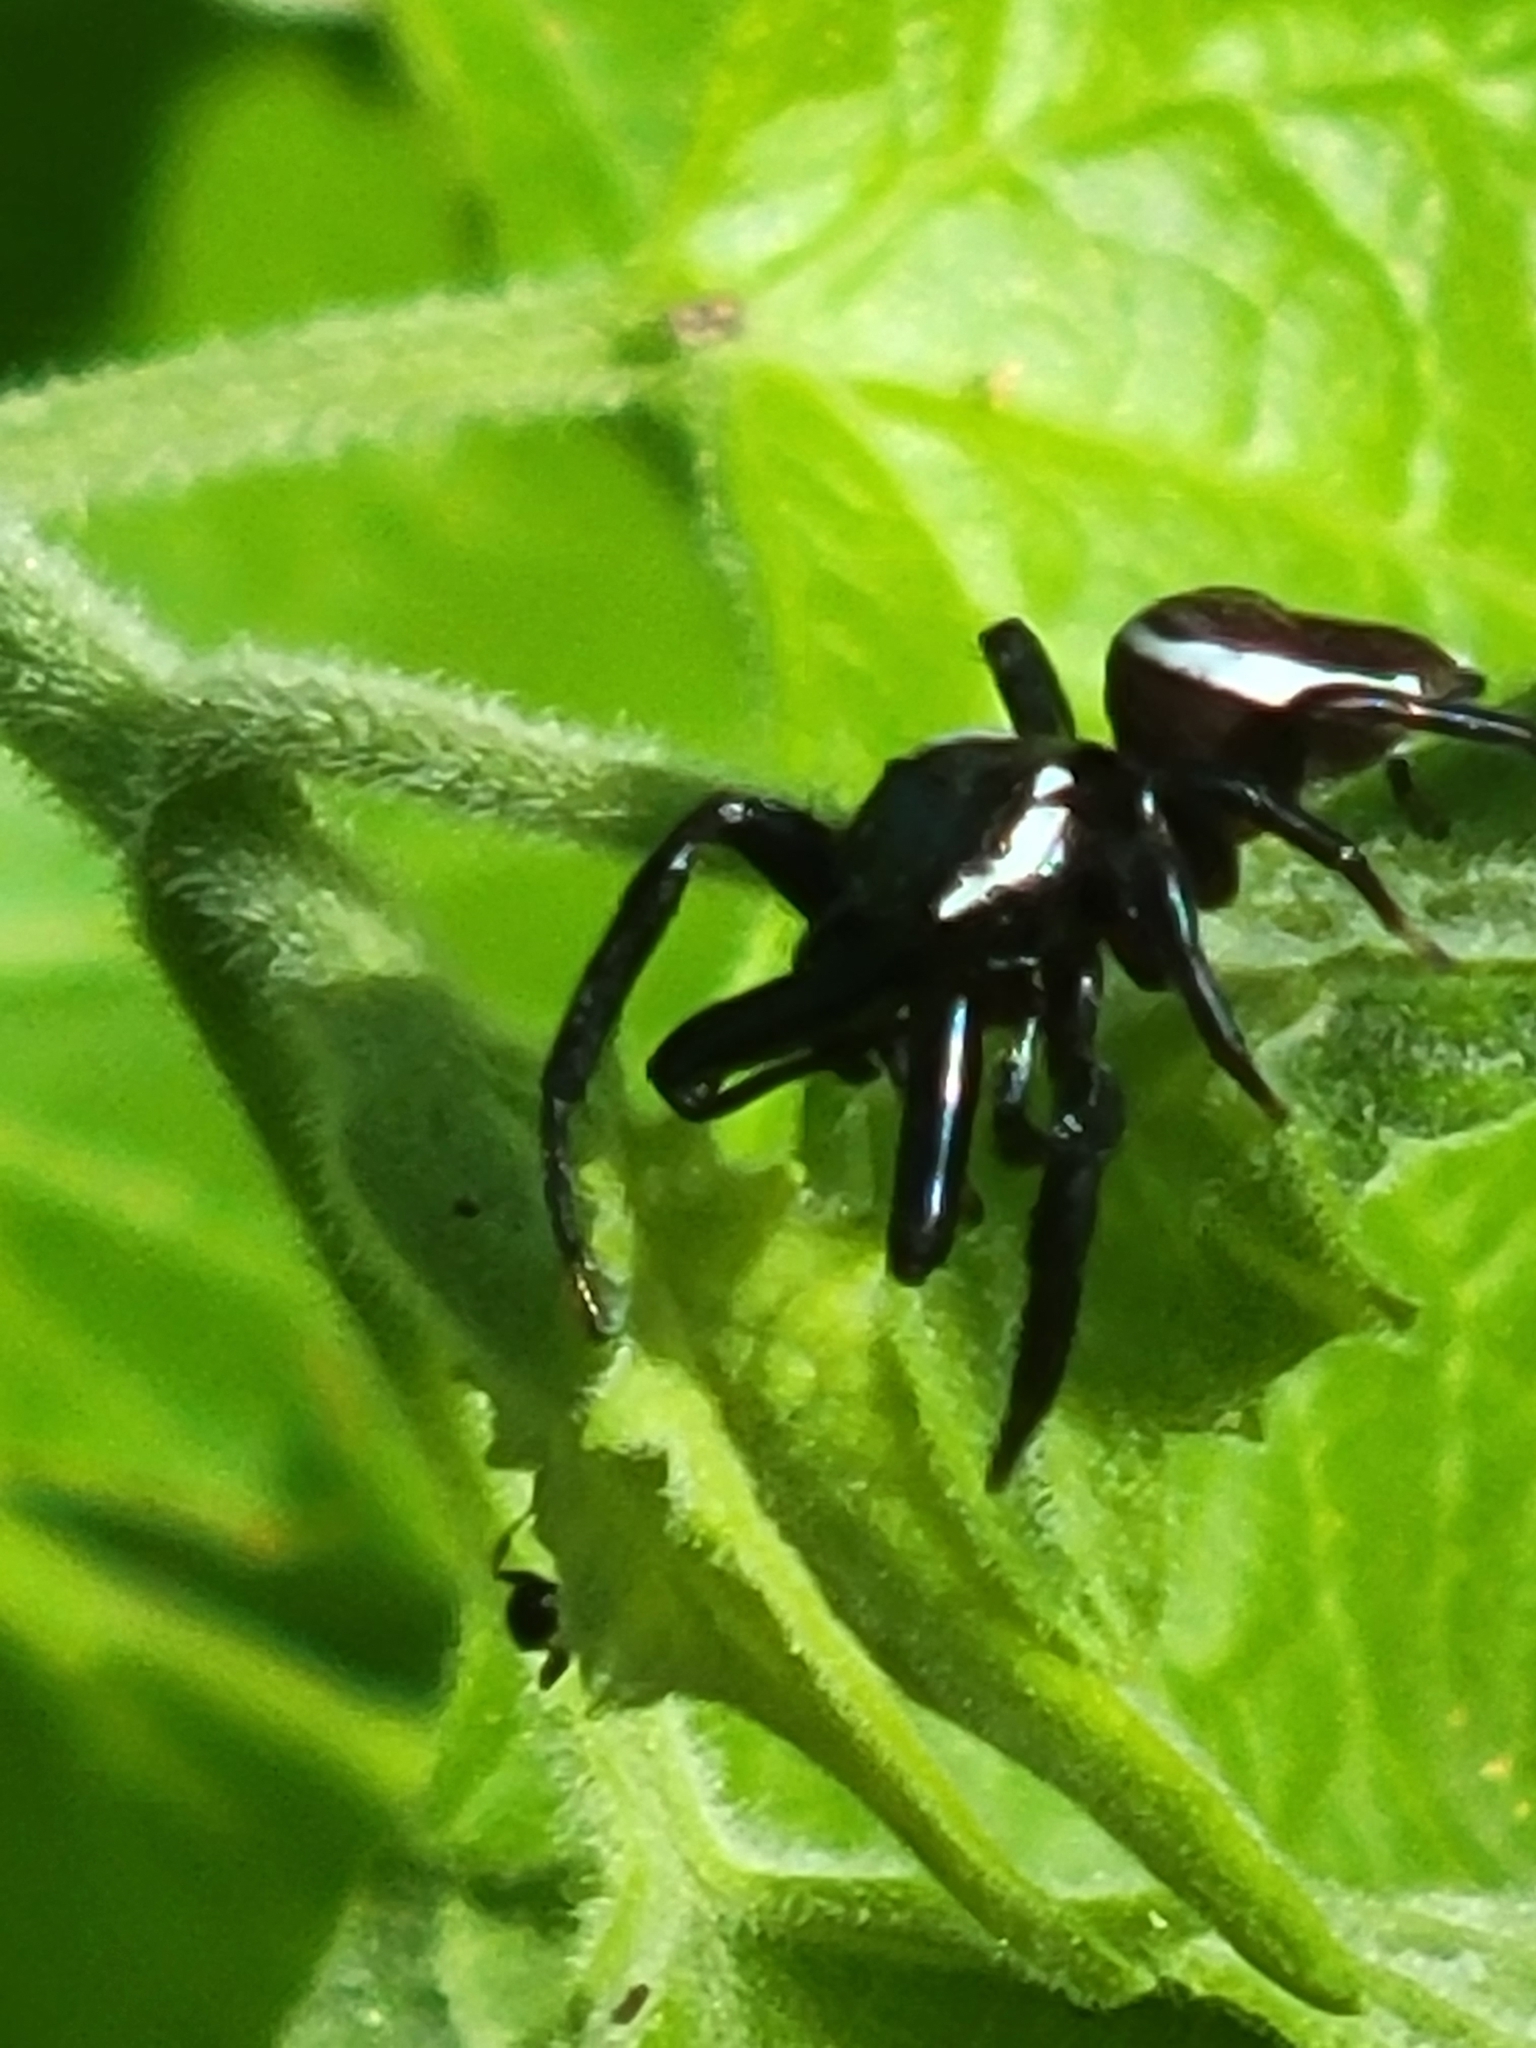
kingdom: Animalia
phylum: Arthropoda
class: Arachnida
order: Araneae
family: Salticidae
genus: Messua
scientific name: Messua limbata
